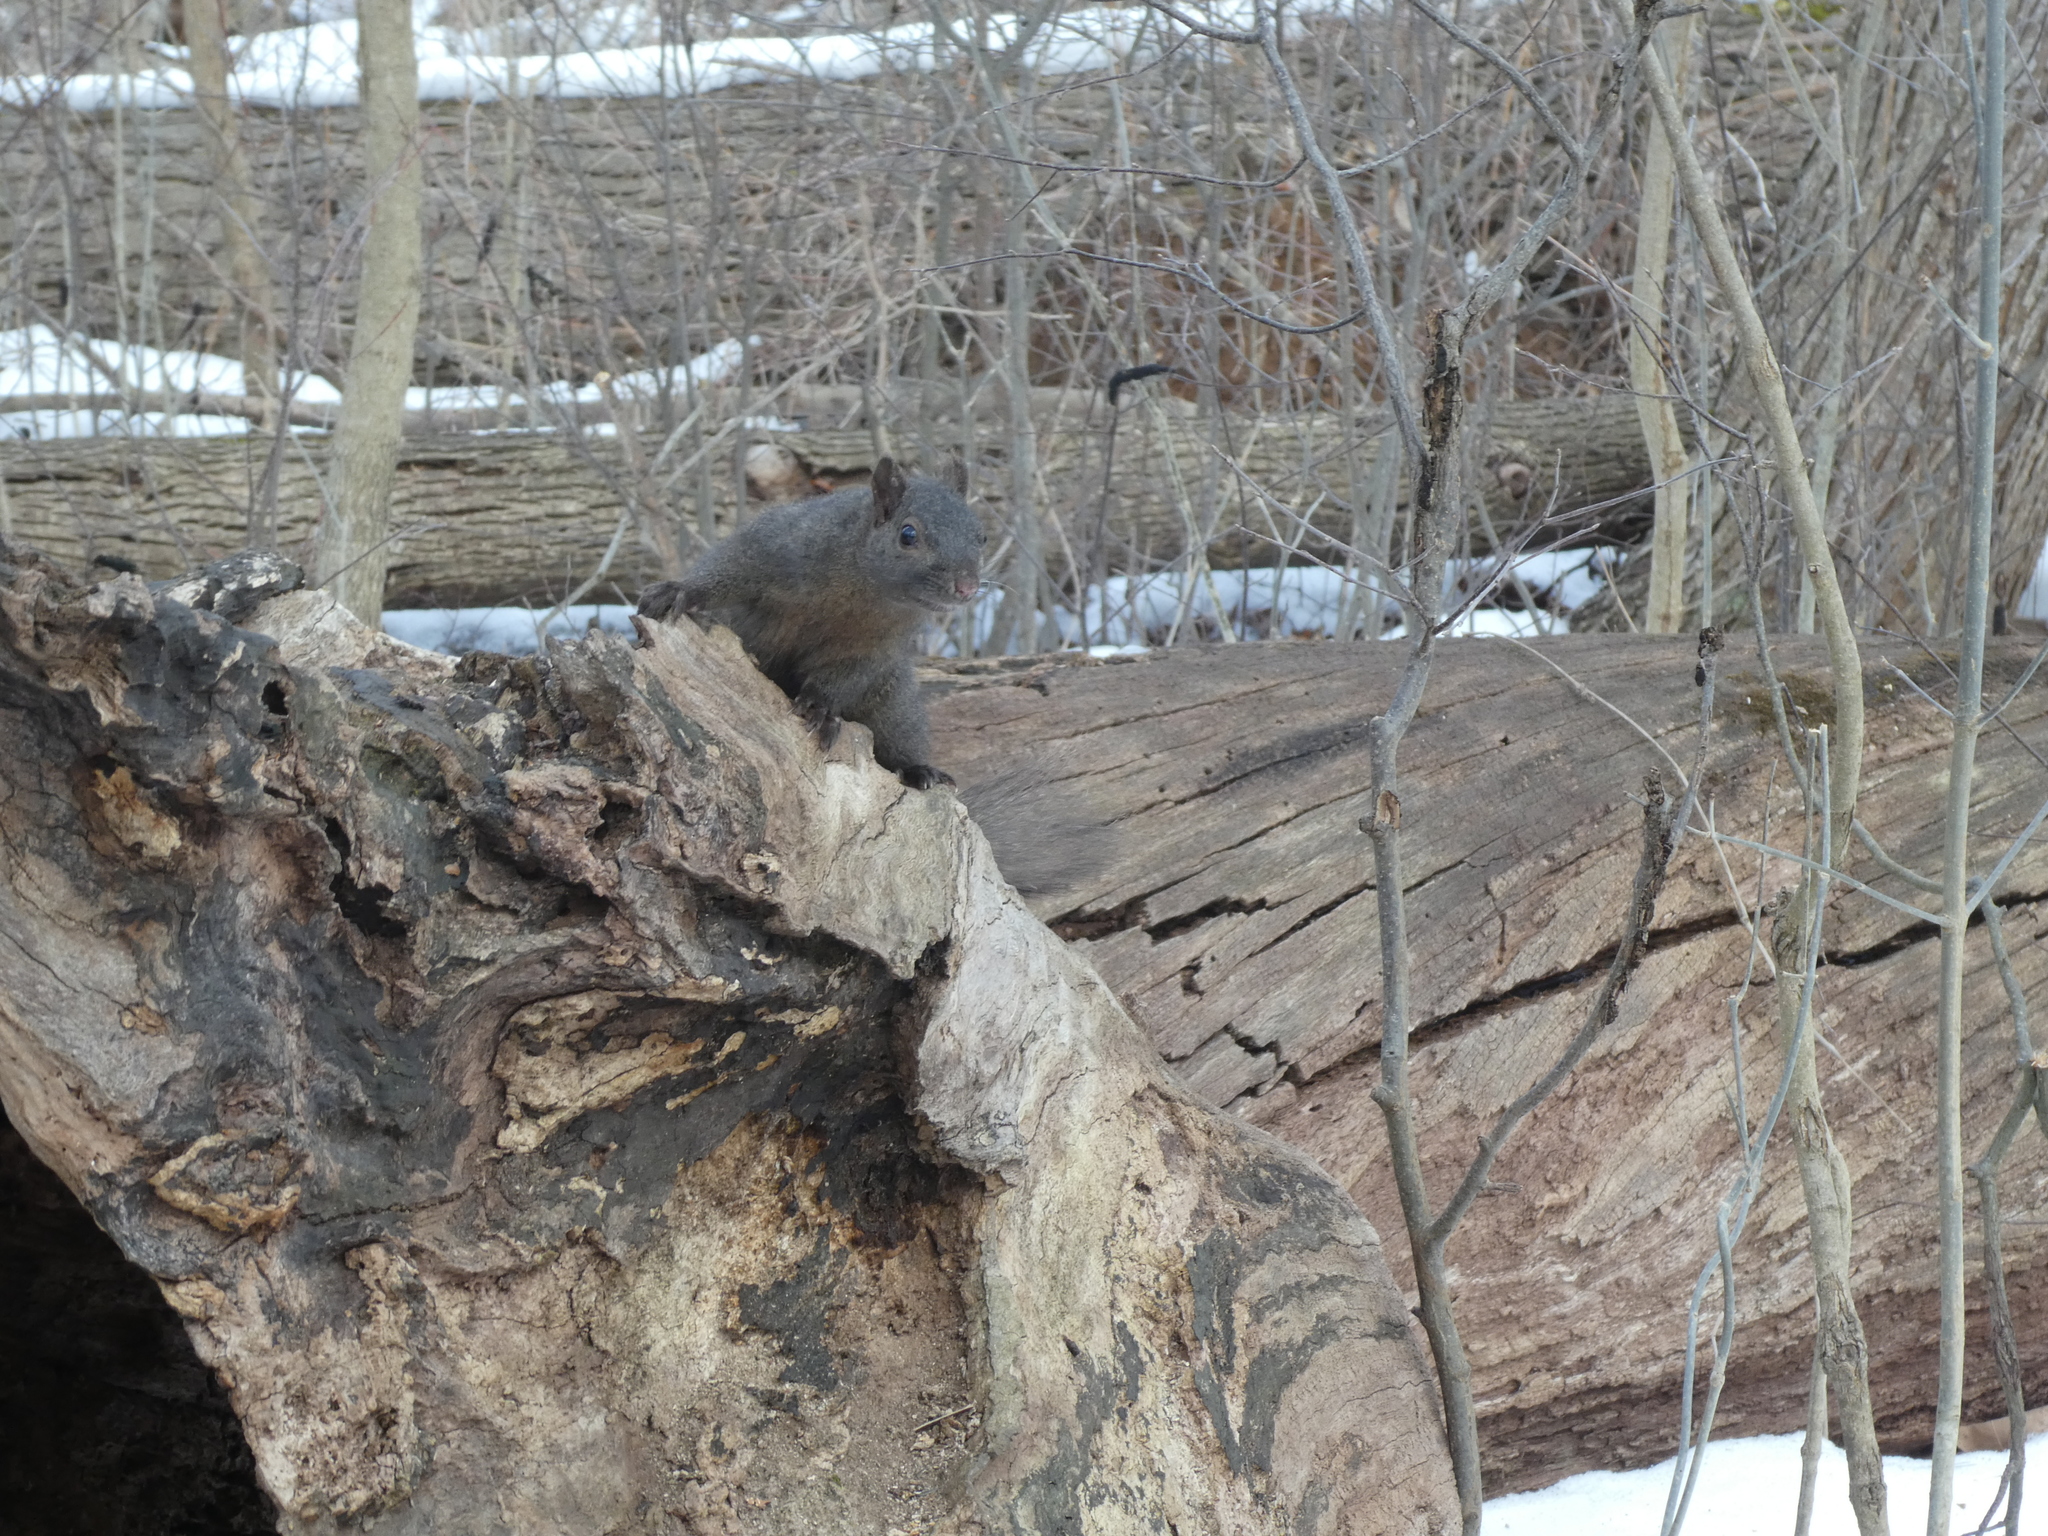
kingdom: Animalia
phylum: Chordata
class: Mammalia
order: Rodentia
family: Sciuridae
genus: Sciurus
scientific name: Sciurus carolinensis
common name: Eastern gray squirrel
